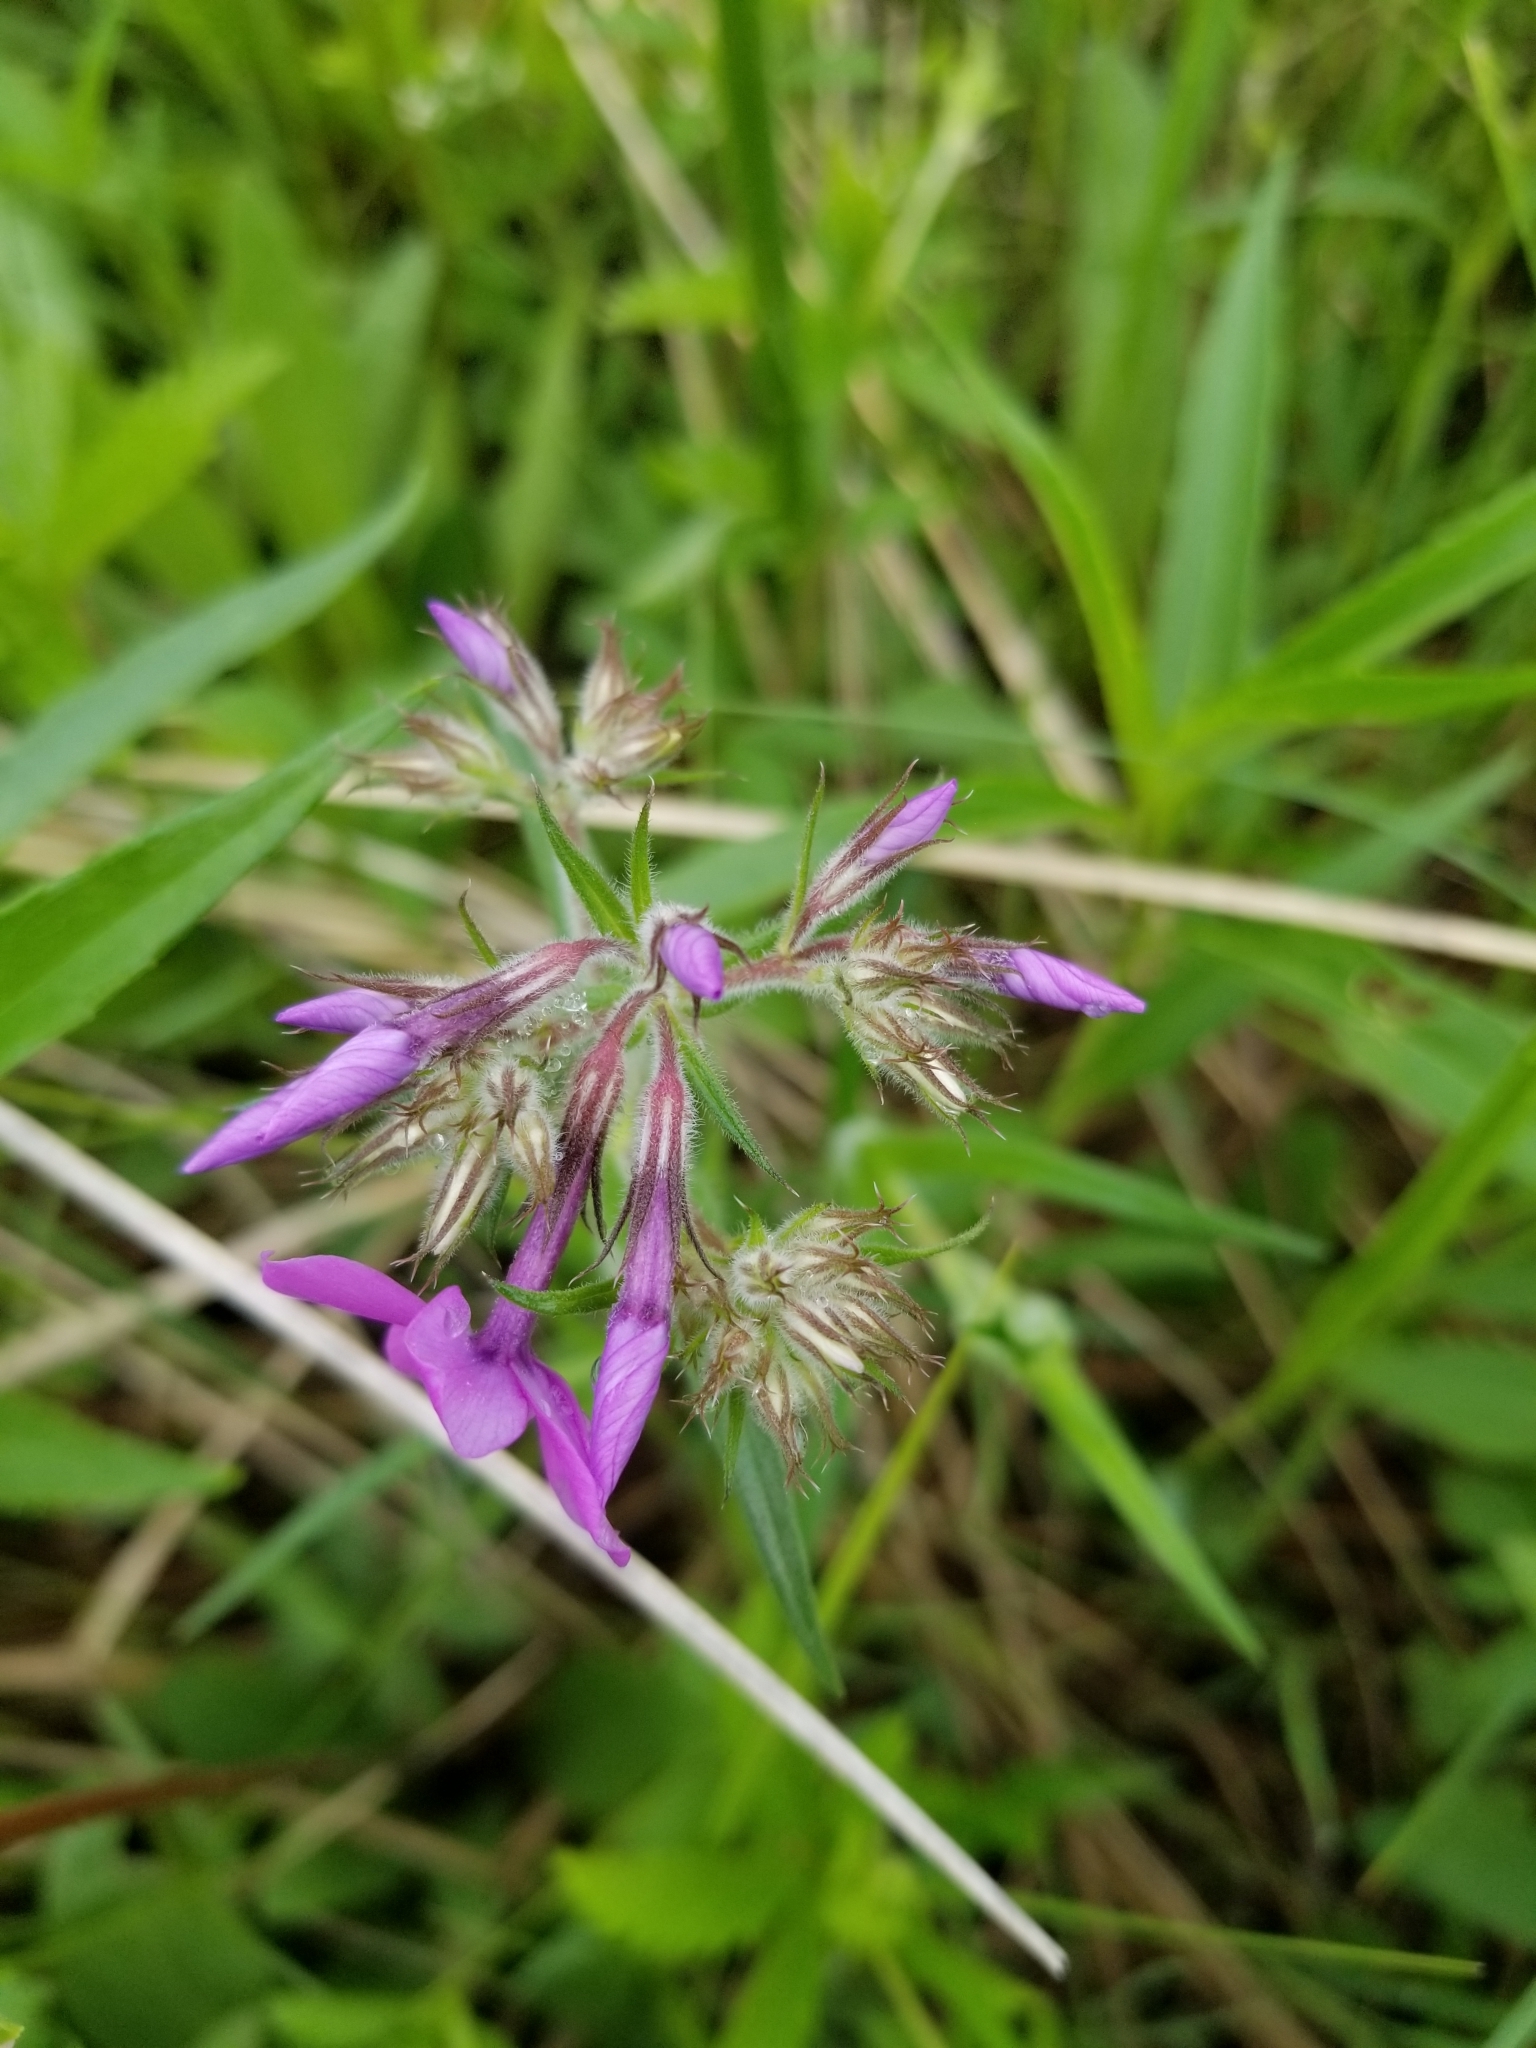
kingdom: Plantae
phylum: Tracheophyta
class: Magnoliopsida
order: Ericales
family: Polemoniaceae
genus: Phlox
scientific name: Phlox pilosa
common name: Prairie phlox
